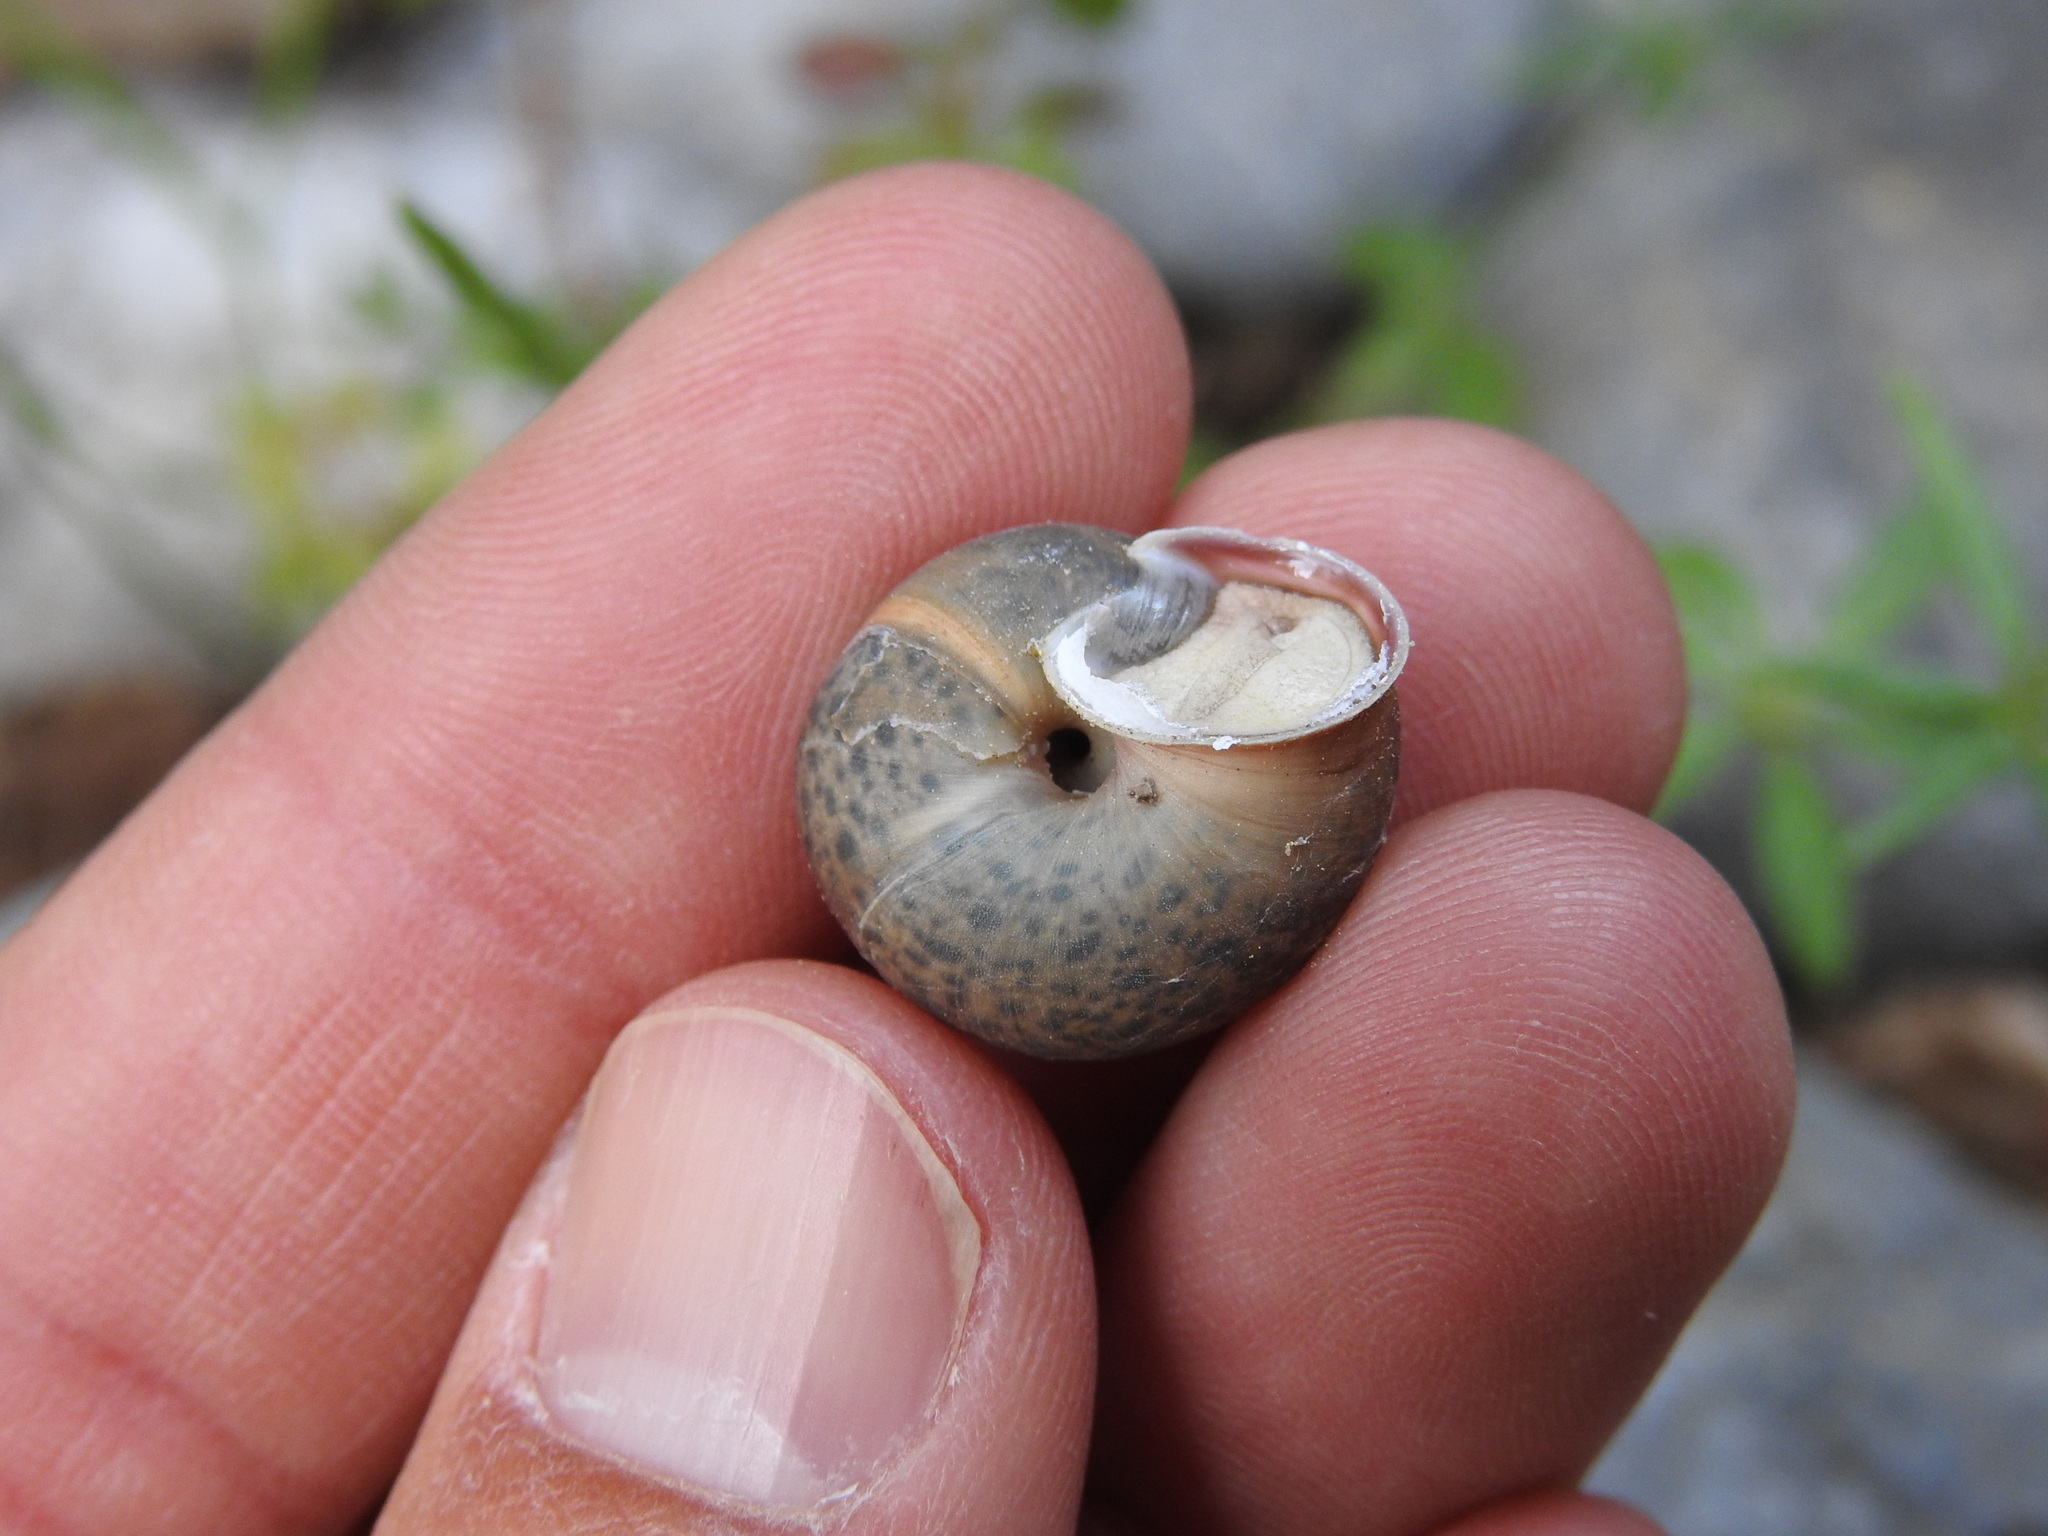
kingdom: Animalia
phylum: Mollusca
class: Gastropoda
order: Stylommatophora
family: Hygromiidae
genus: Metafruticicola
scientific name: Metafruticicola noverca
